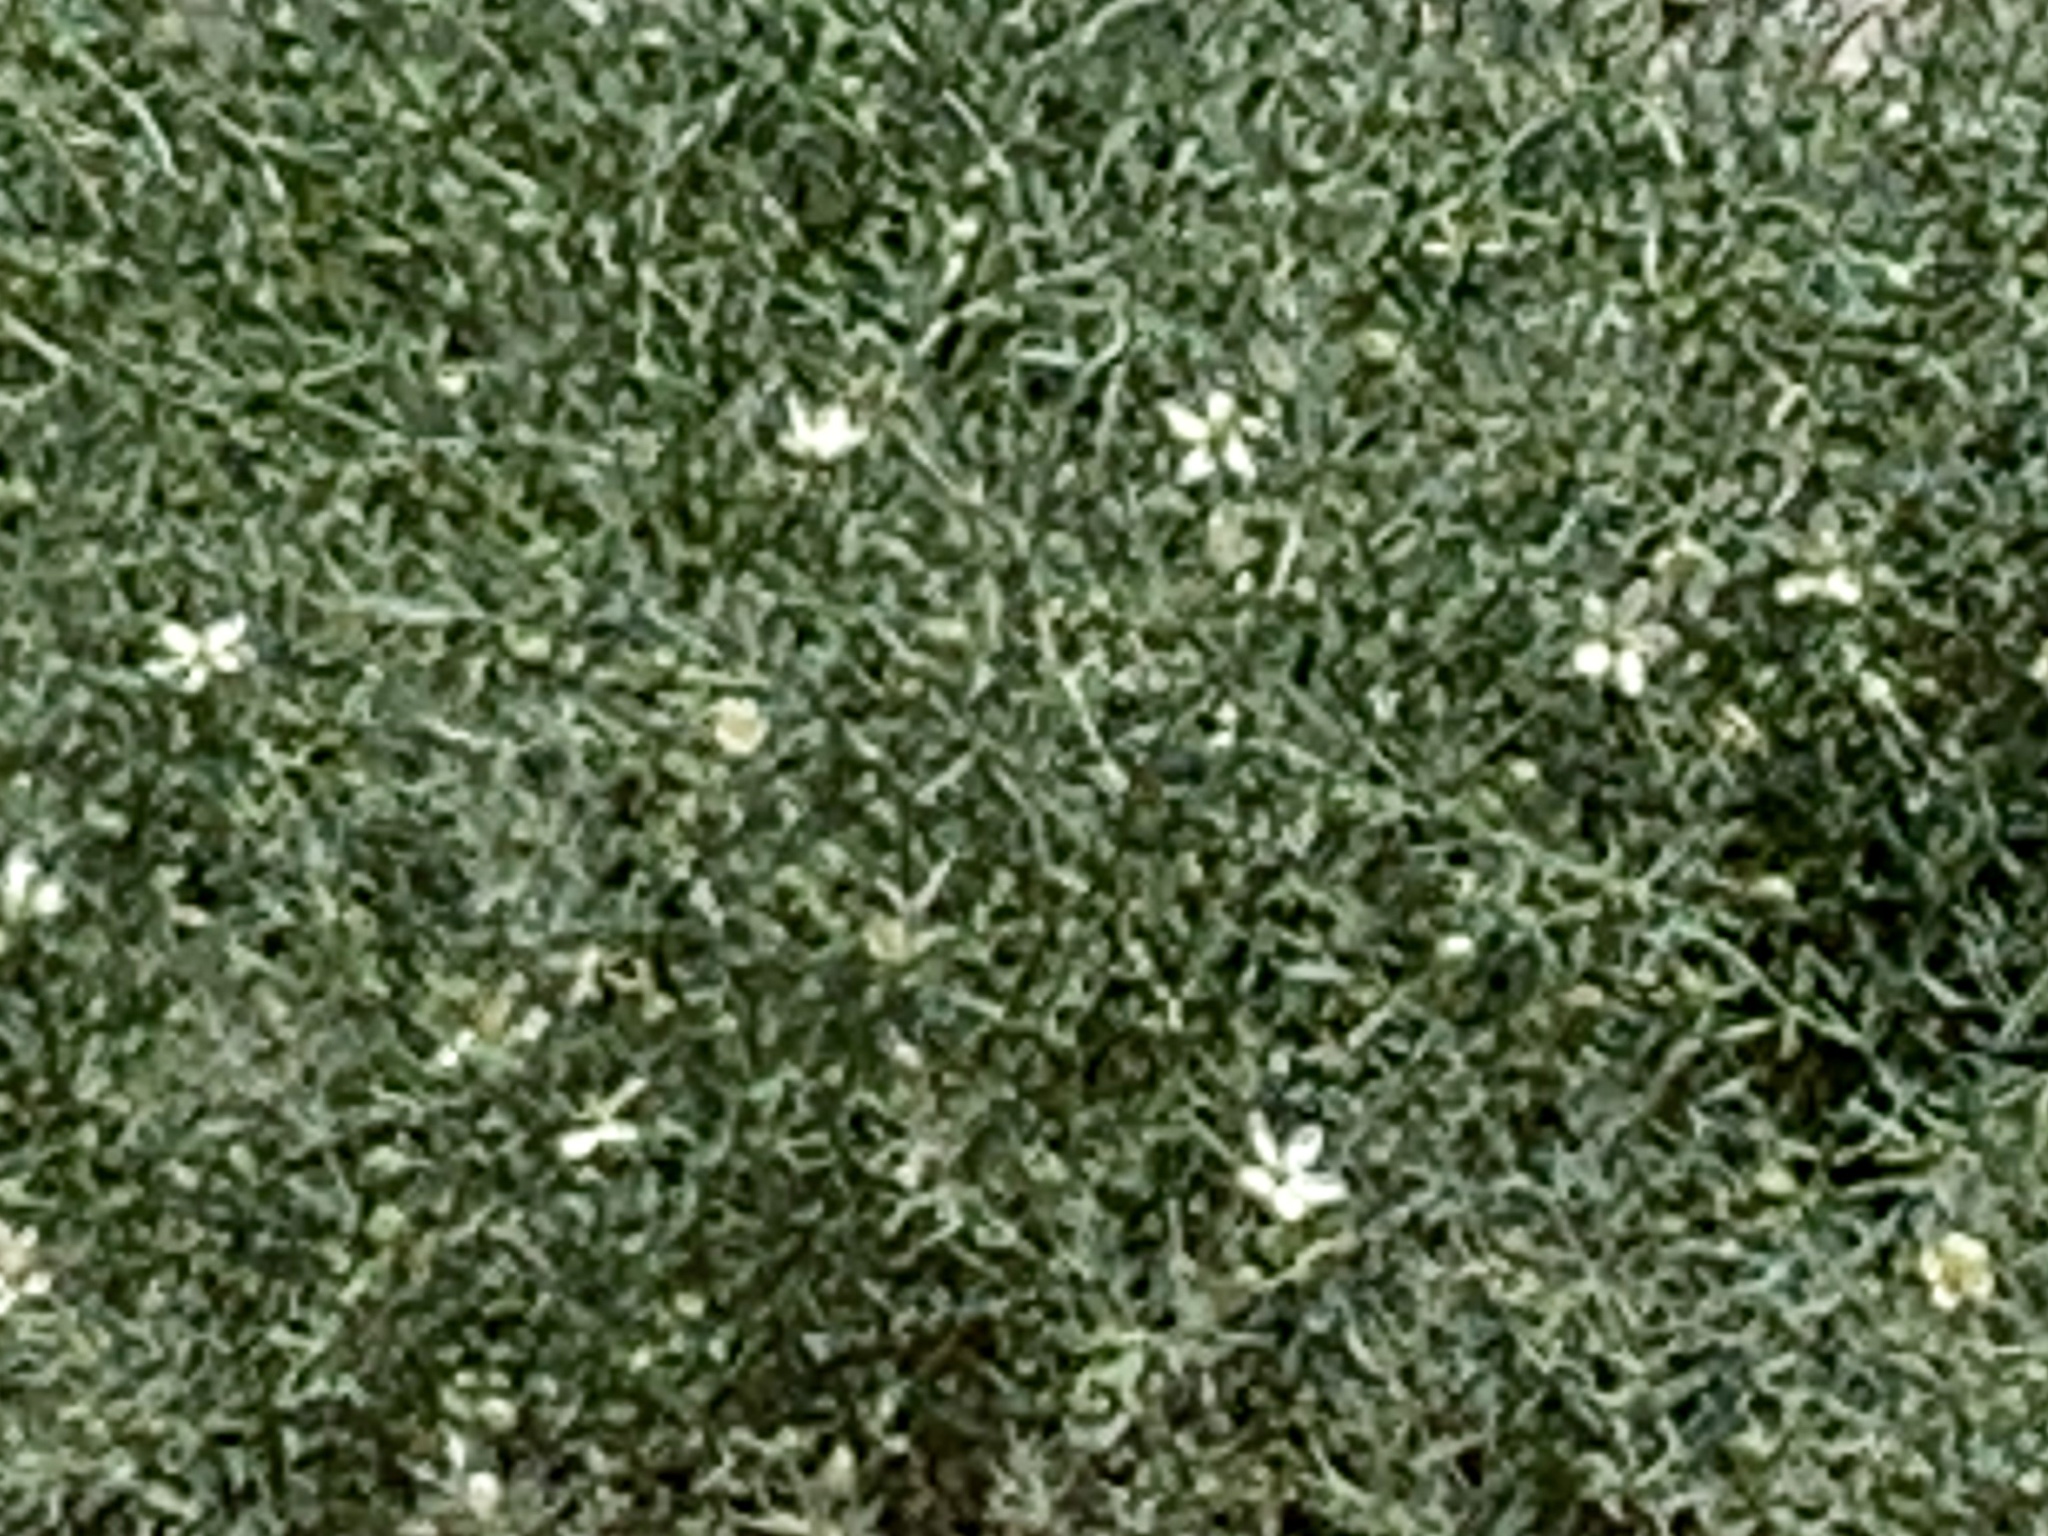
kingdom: Plantae
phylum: Tracheophyta
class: Magnoliopsida
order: Sapindales
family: Tetradiclidaceae
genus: Peganum
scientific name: Peganum harmala
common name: Harmal peganum
